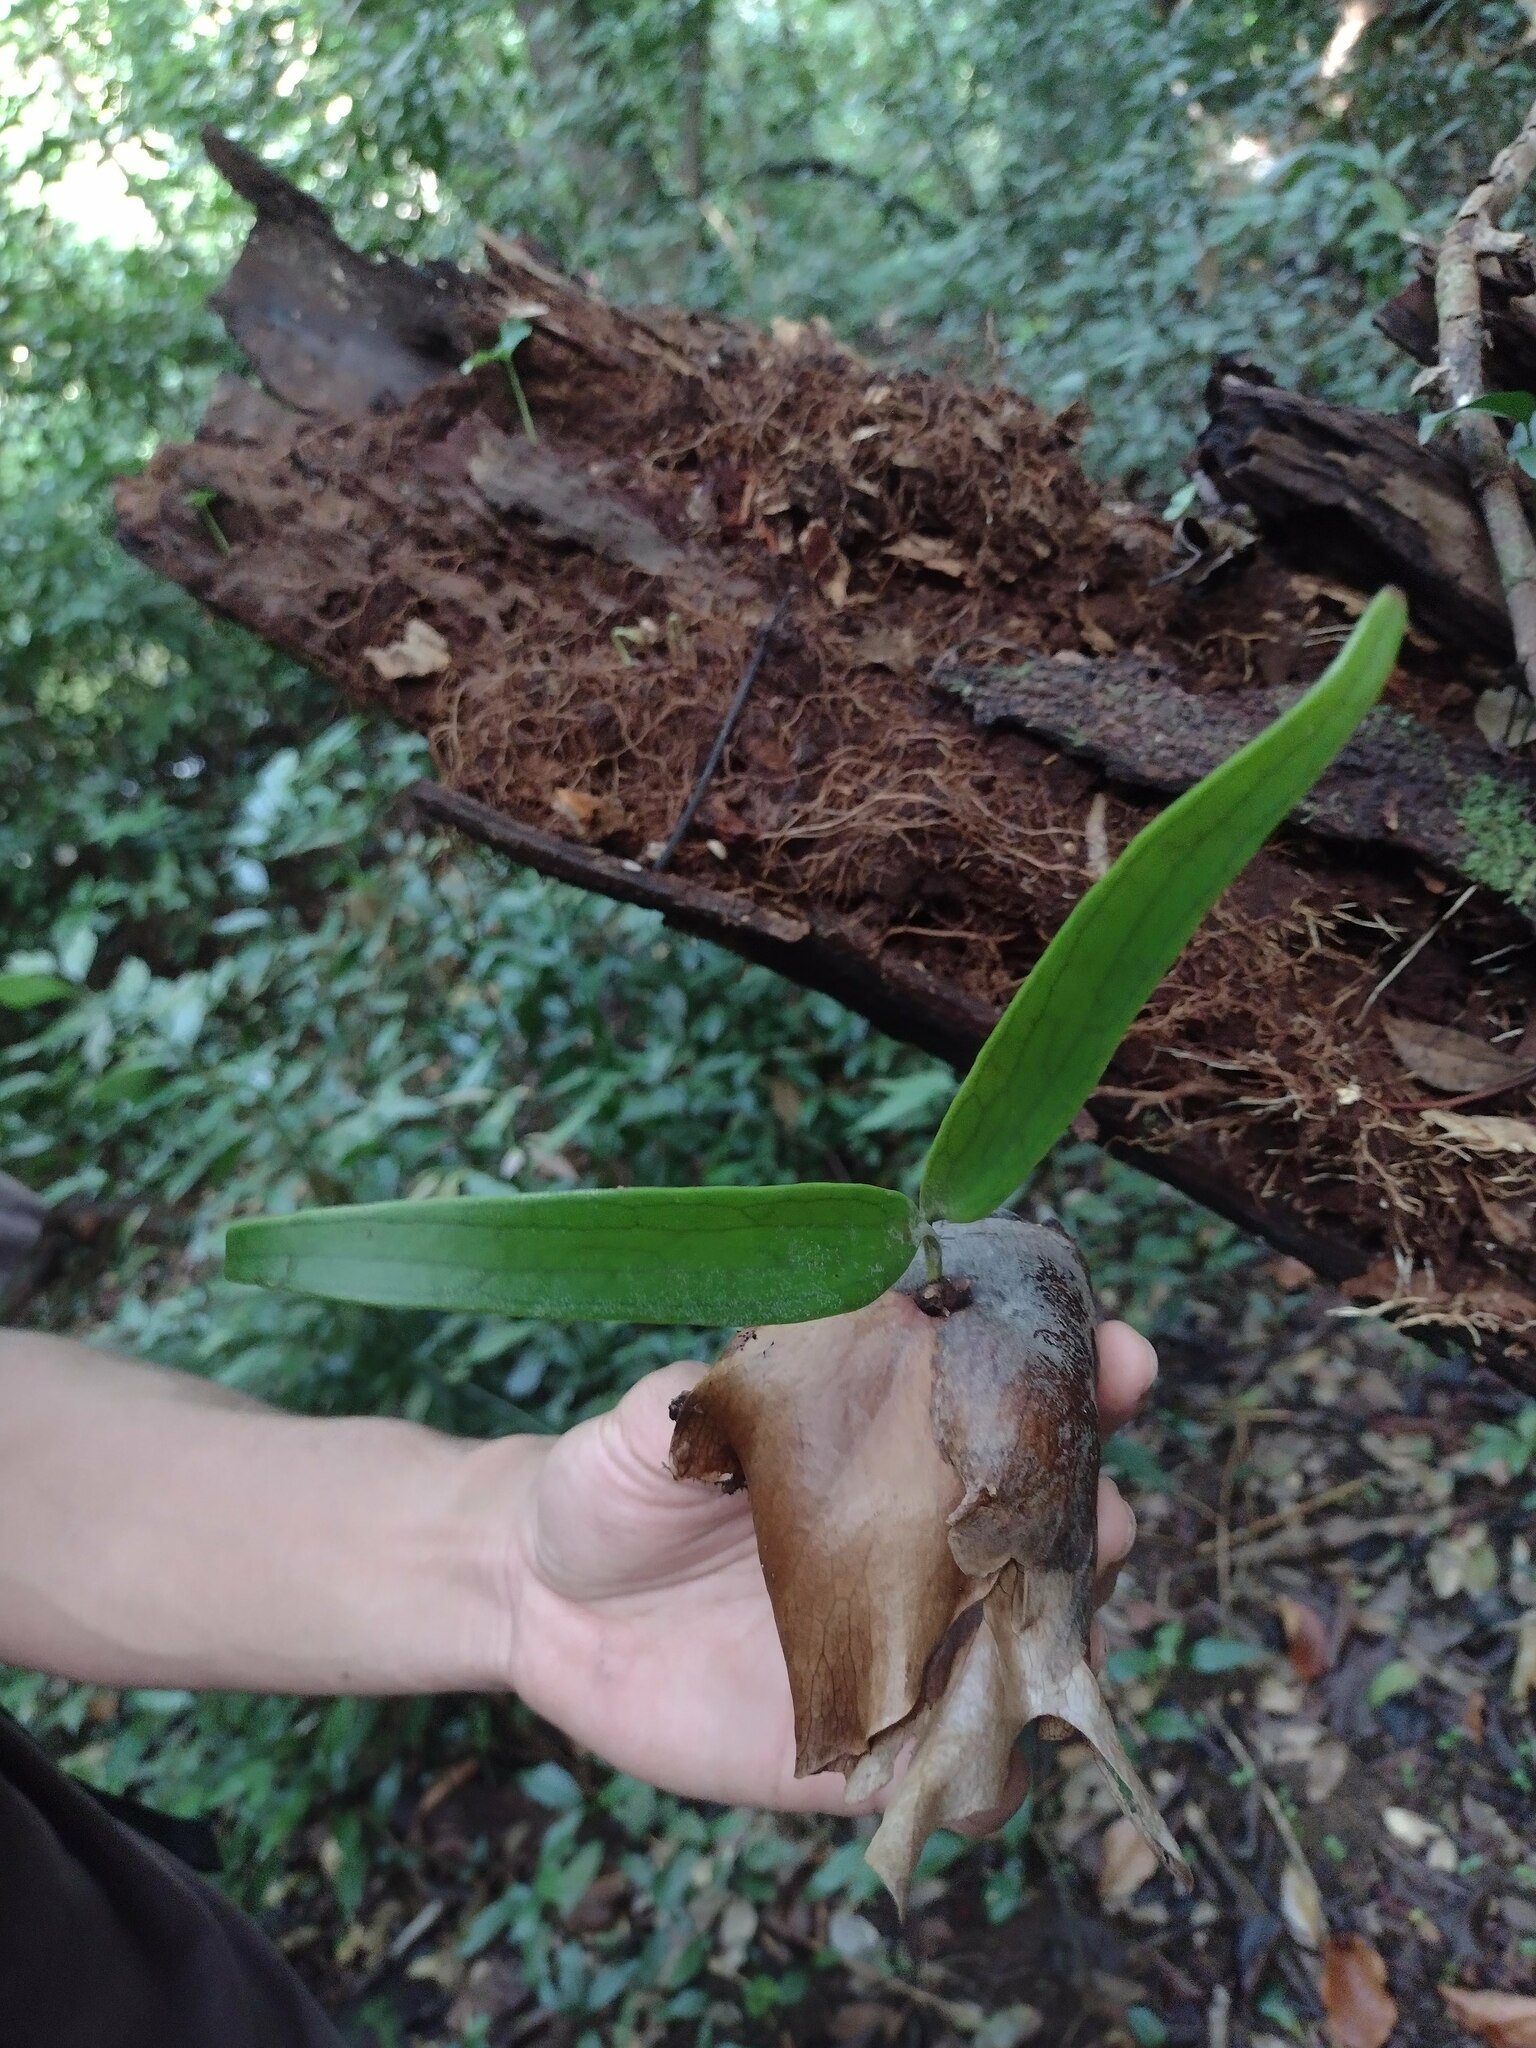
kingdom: Plantae
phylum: Tracheophyta
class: Polypodiopsida
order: Polypodiales
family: Polypodiaceae
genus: Platycerium
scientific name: Platycerium bifurcatum
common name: Elkhorn fern
